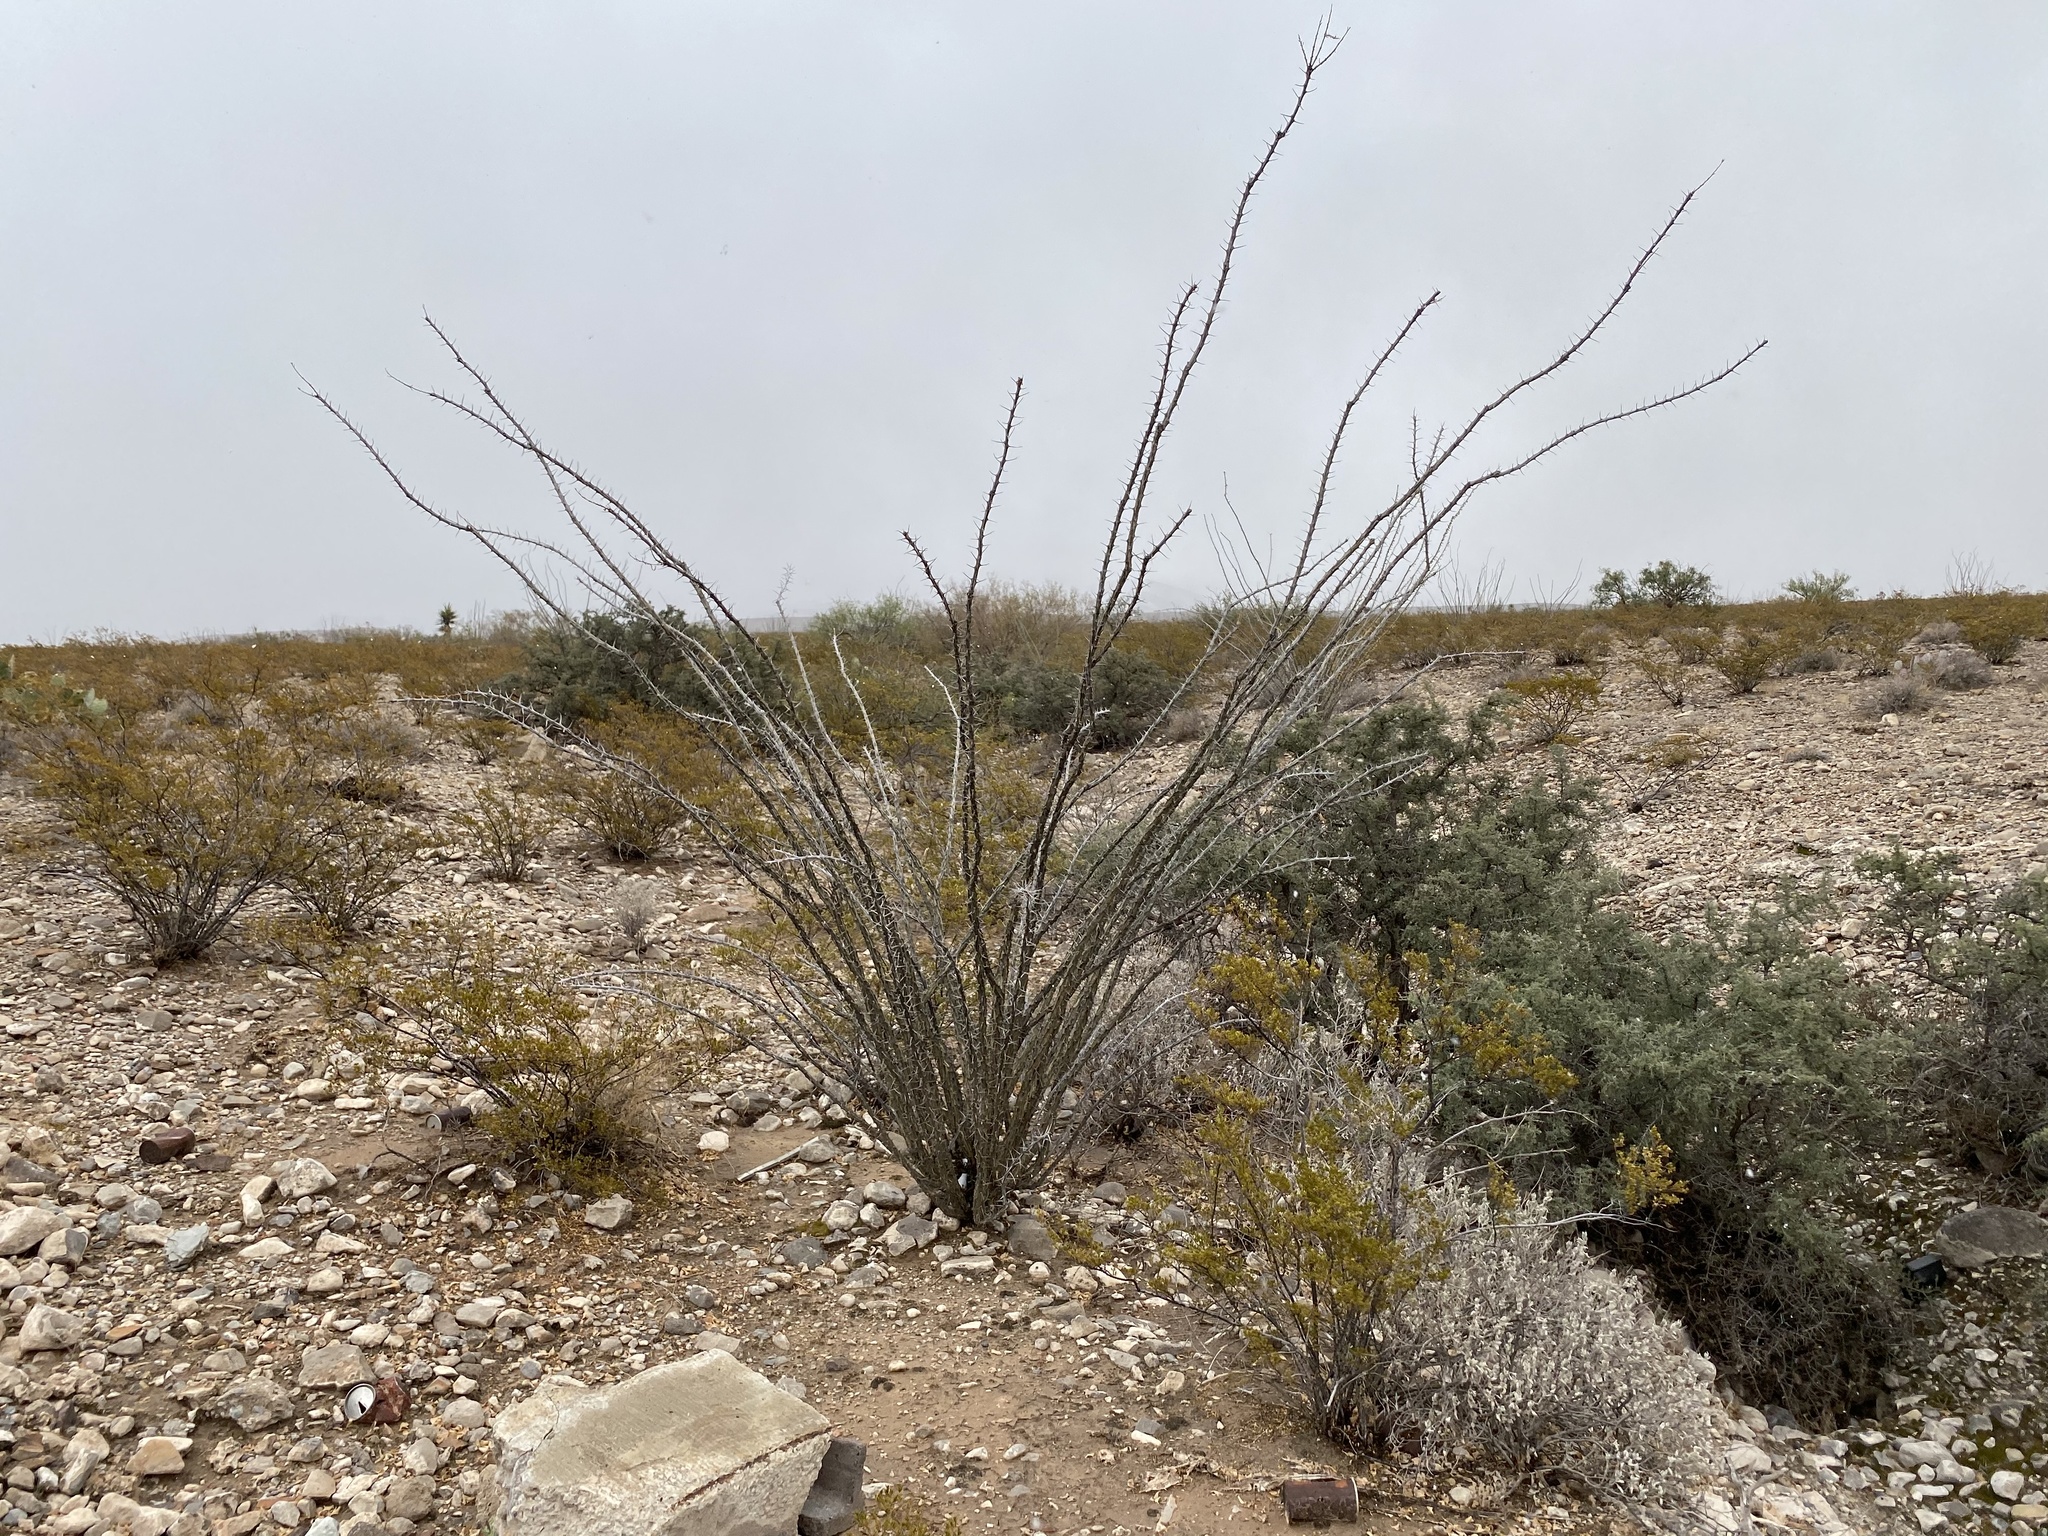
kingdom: Plantae
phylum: Tracheophyta
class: Magnoliopsida
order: Ericales
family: Fouquieriaceae
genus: Fouquieria
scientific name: Fouquieria splendens
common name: Vine-cactus
